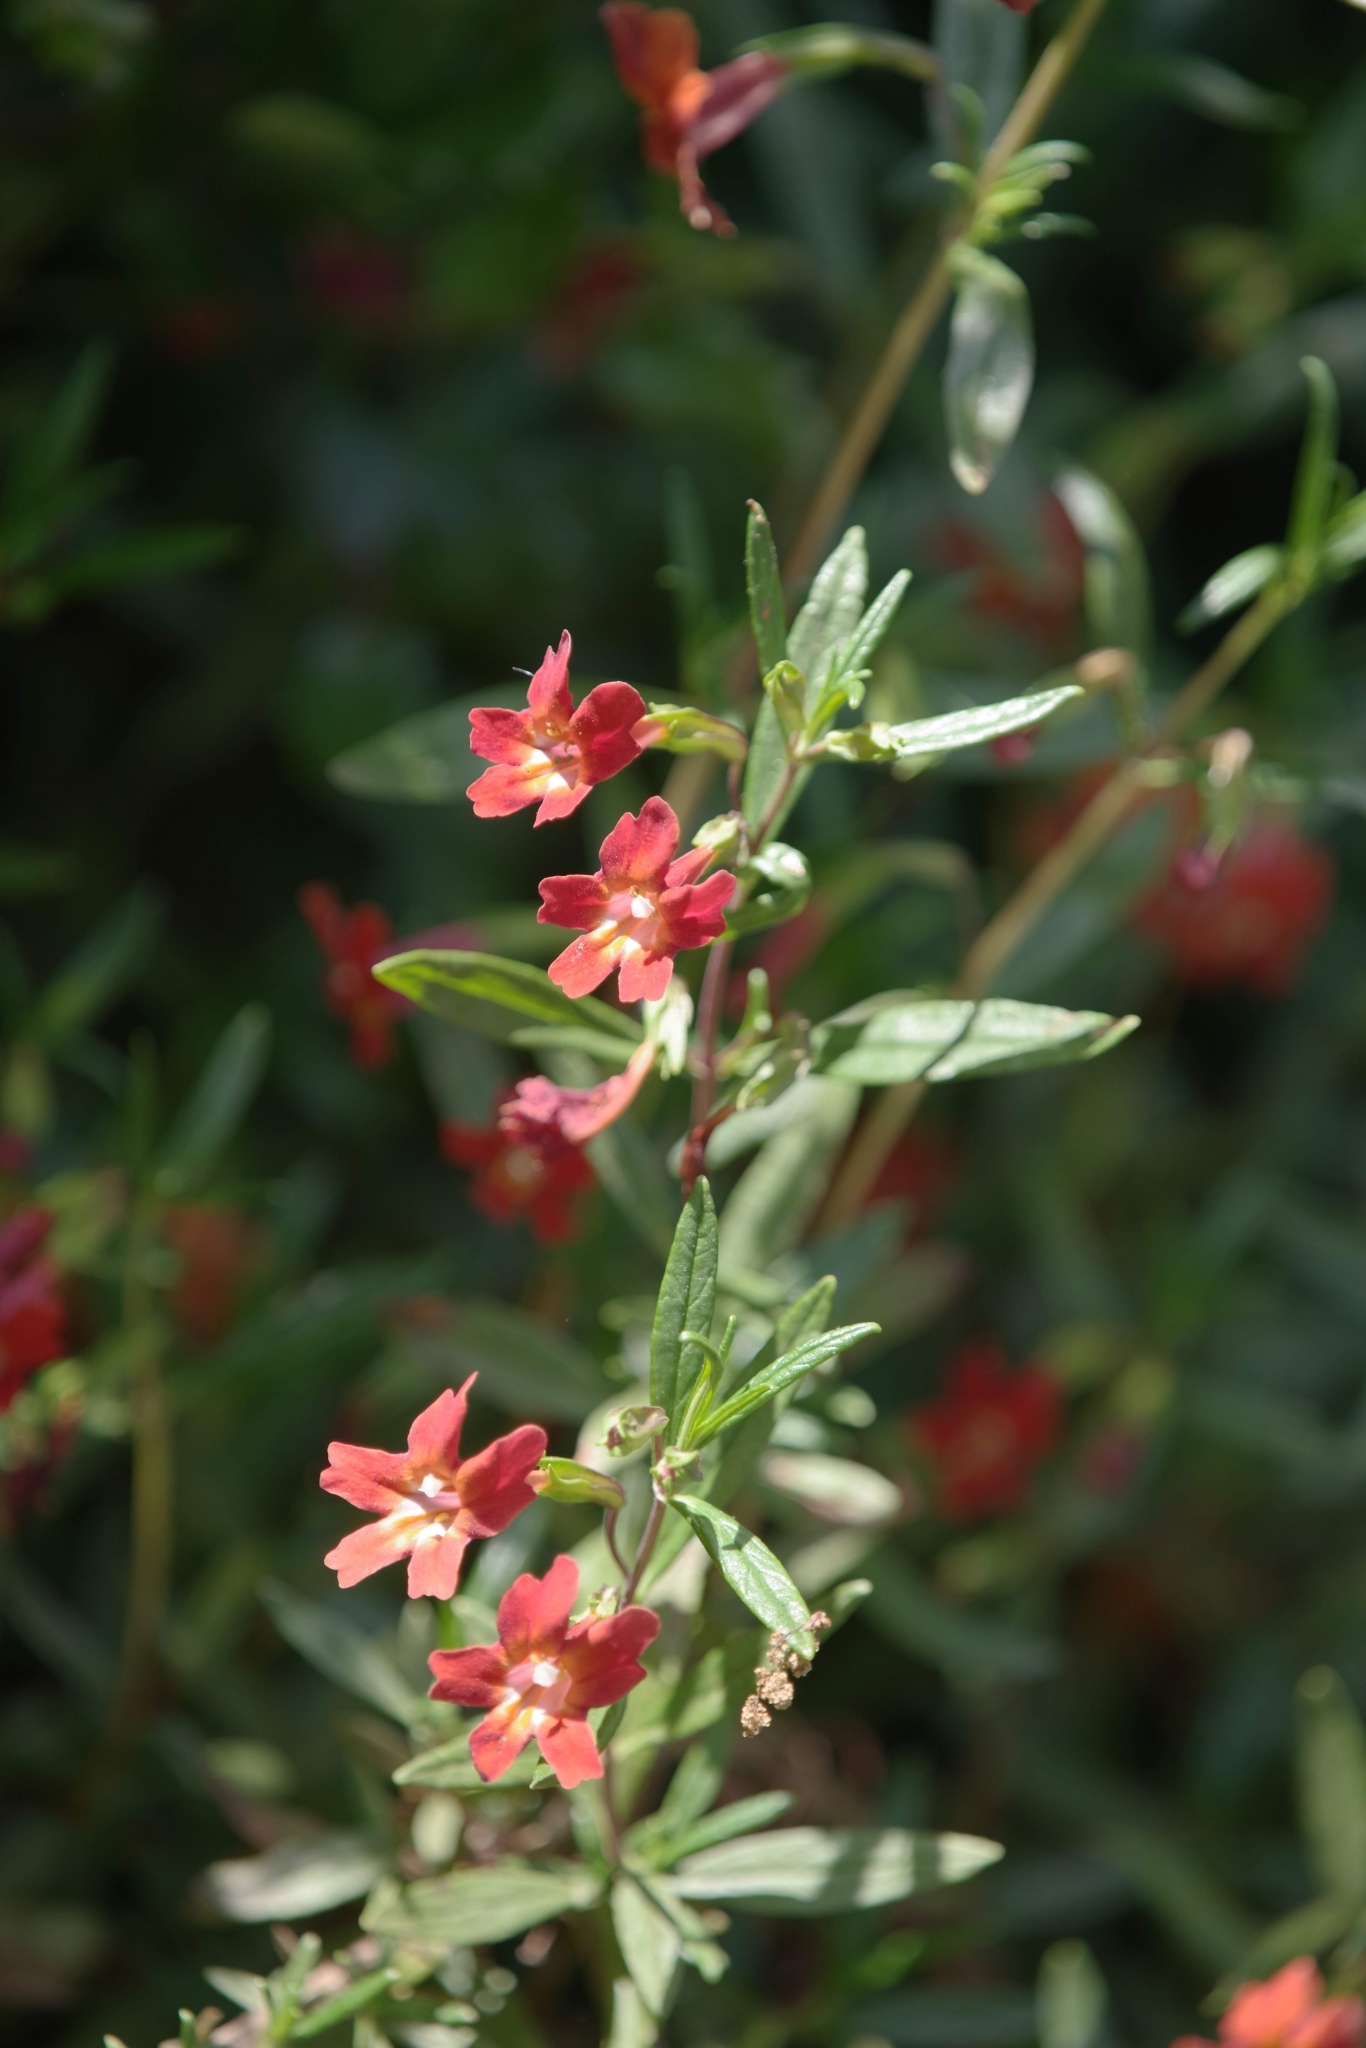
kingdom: Plantae
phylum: Tracheophyta
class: Magnoliopsida
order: Lamiales
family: Phrymaceae
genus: Diplacus
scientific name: Diplacus puniceus
